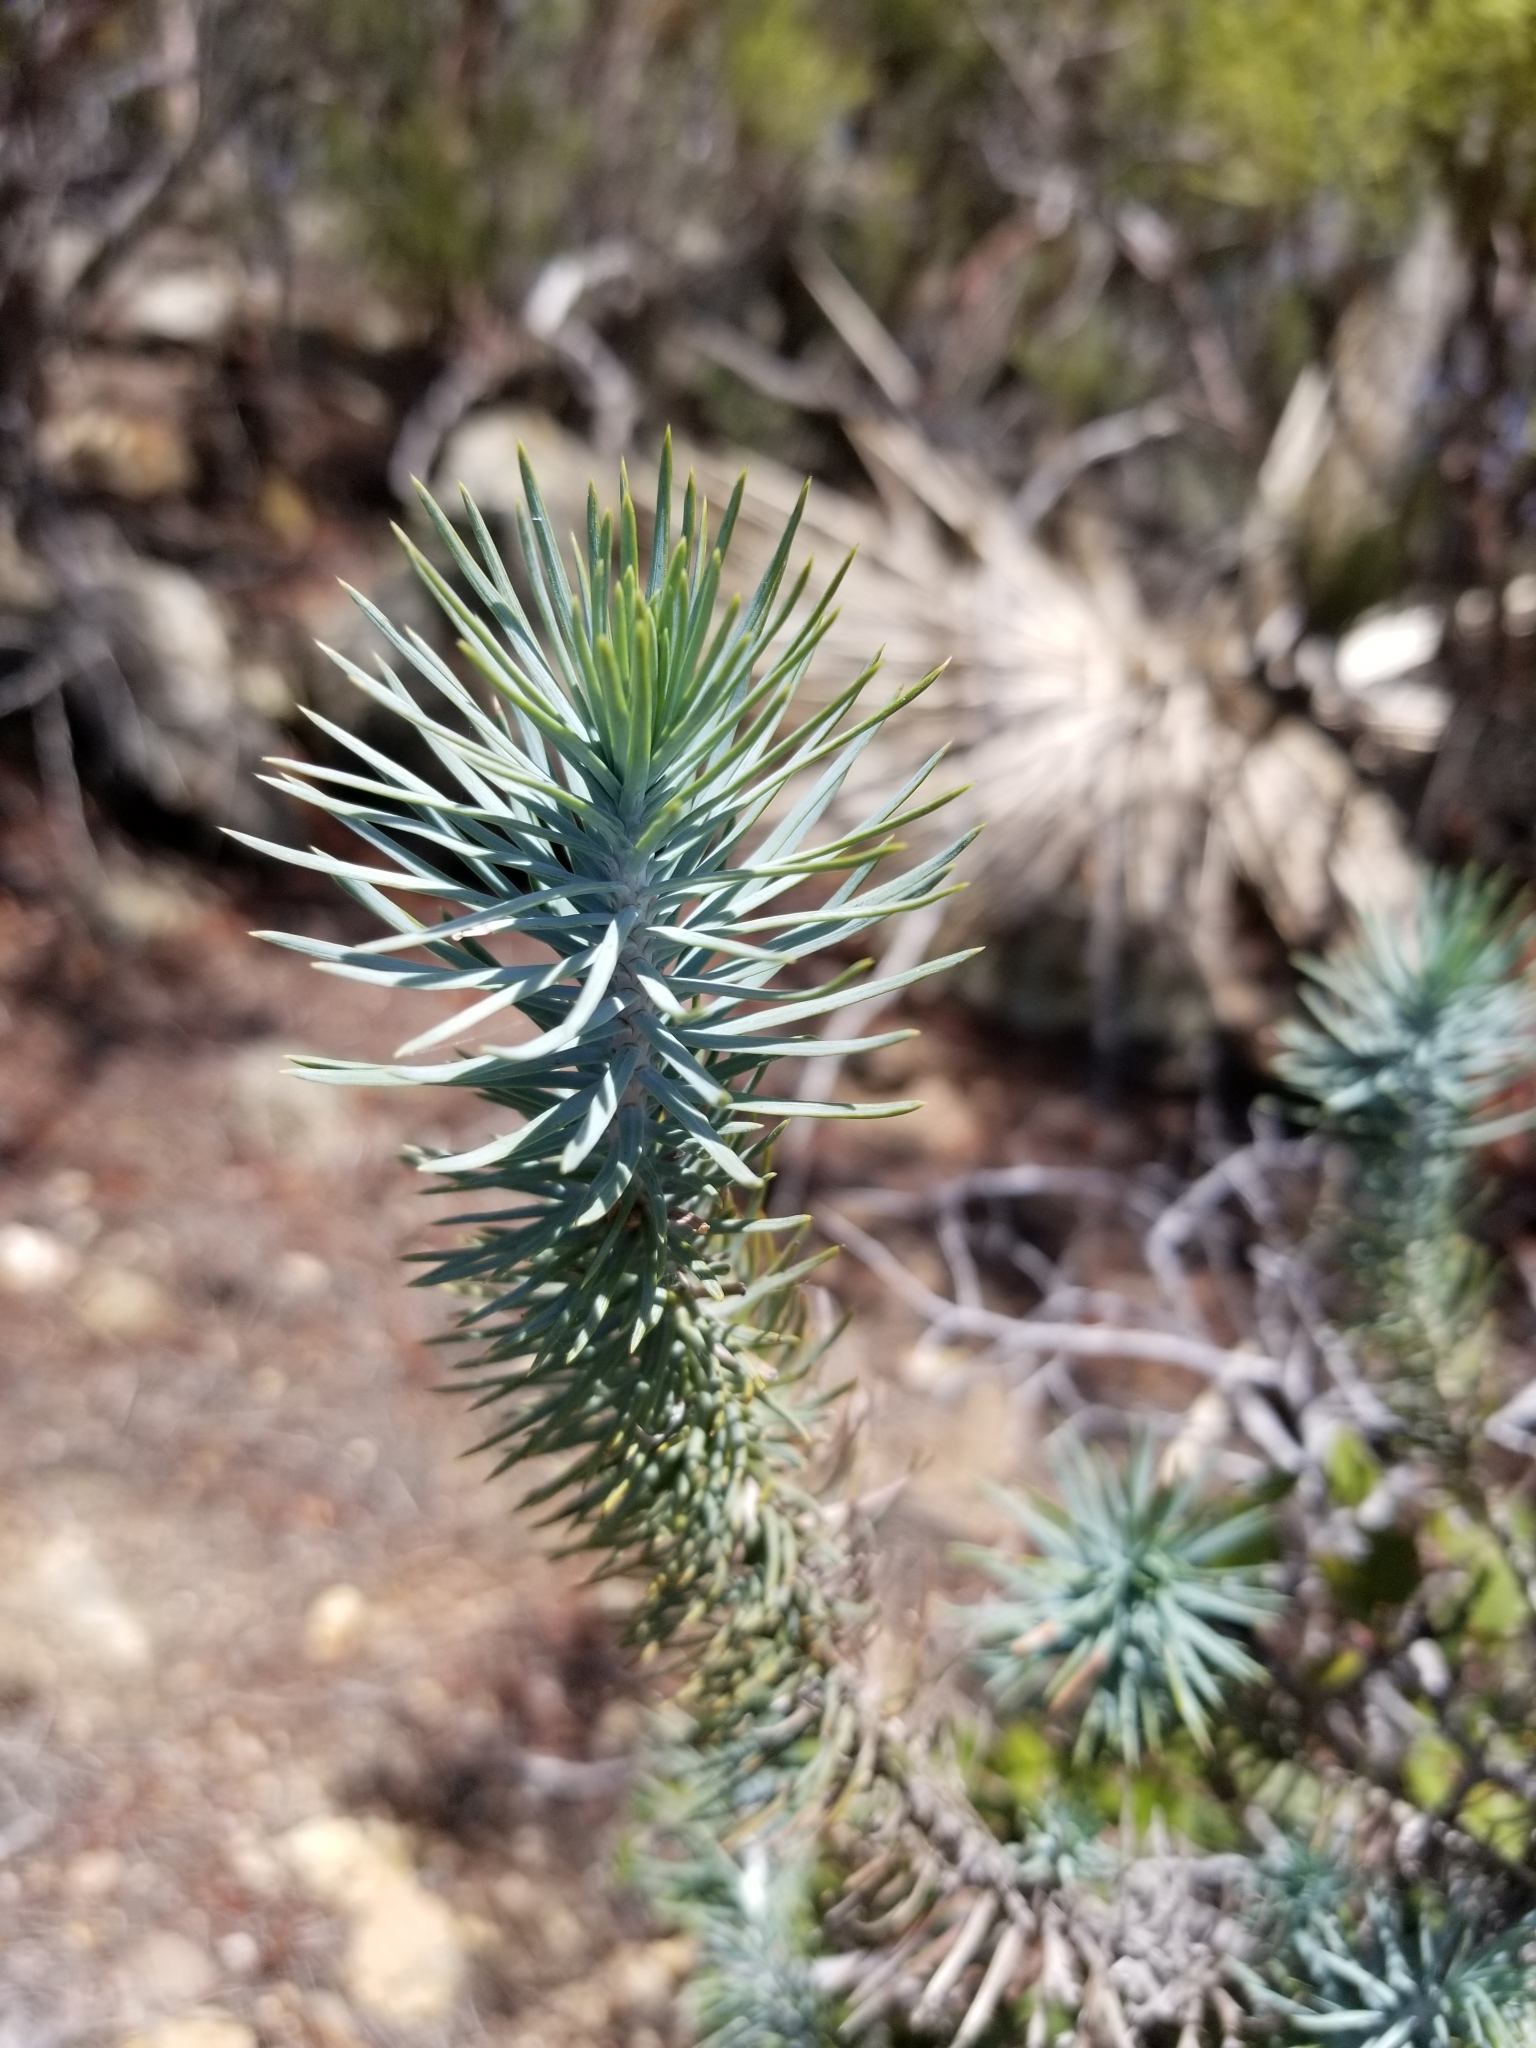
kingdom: Plantae
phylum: Tracheophyta
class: Pinopsida
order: Pinales
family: Pinaceae
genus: Pinus
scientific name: Pinus quadrifolia
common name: Parry pinyon
